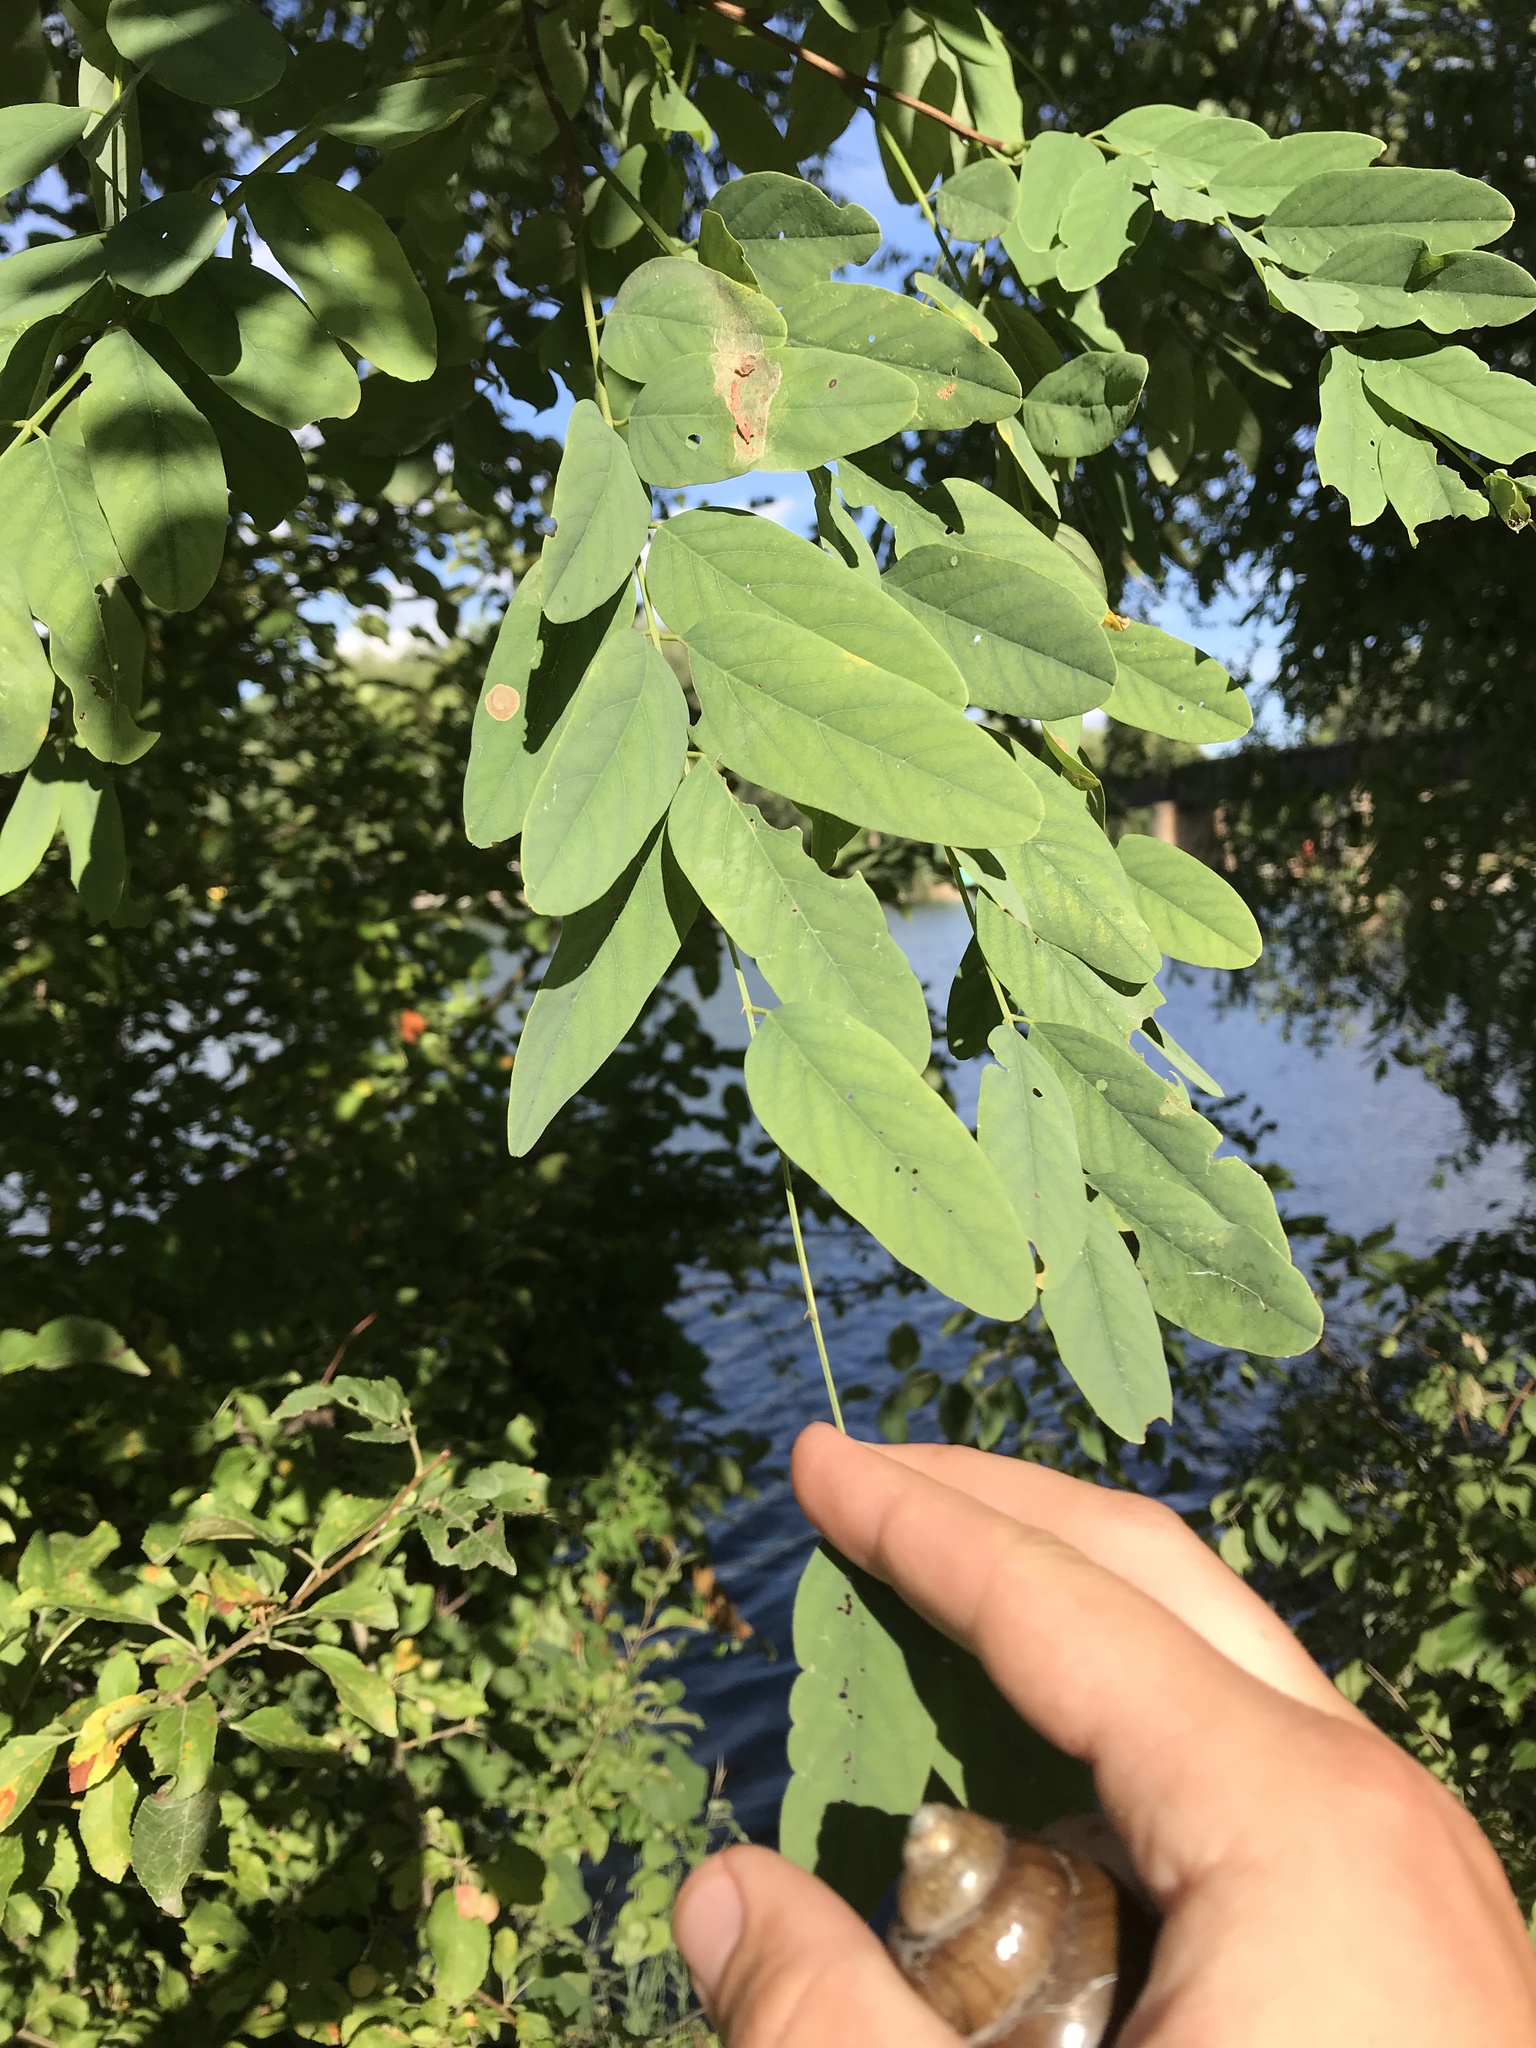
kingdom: Plantae
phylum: Tracheophyta
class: Magnoliopsida
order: Fabales
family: Fabaceae
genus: Robinia
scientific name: Robinia pseudoacacia
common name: Black locust
